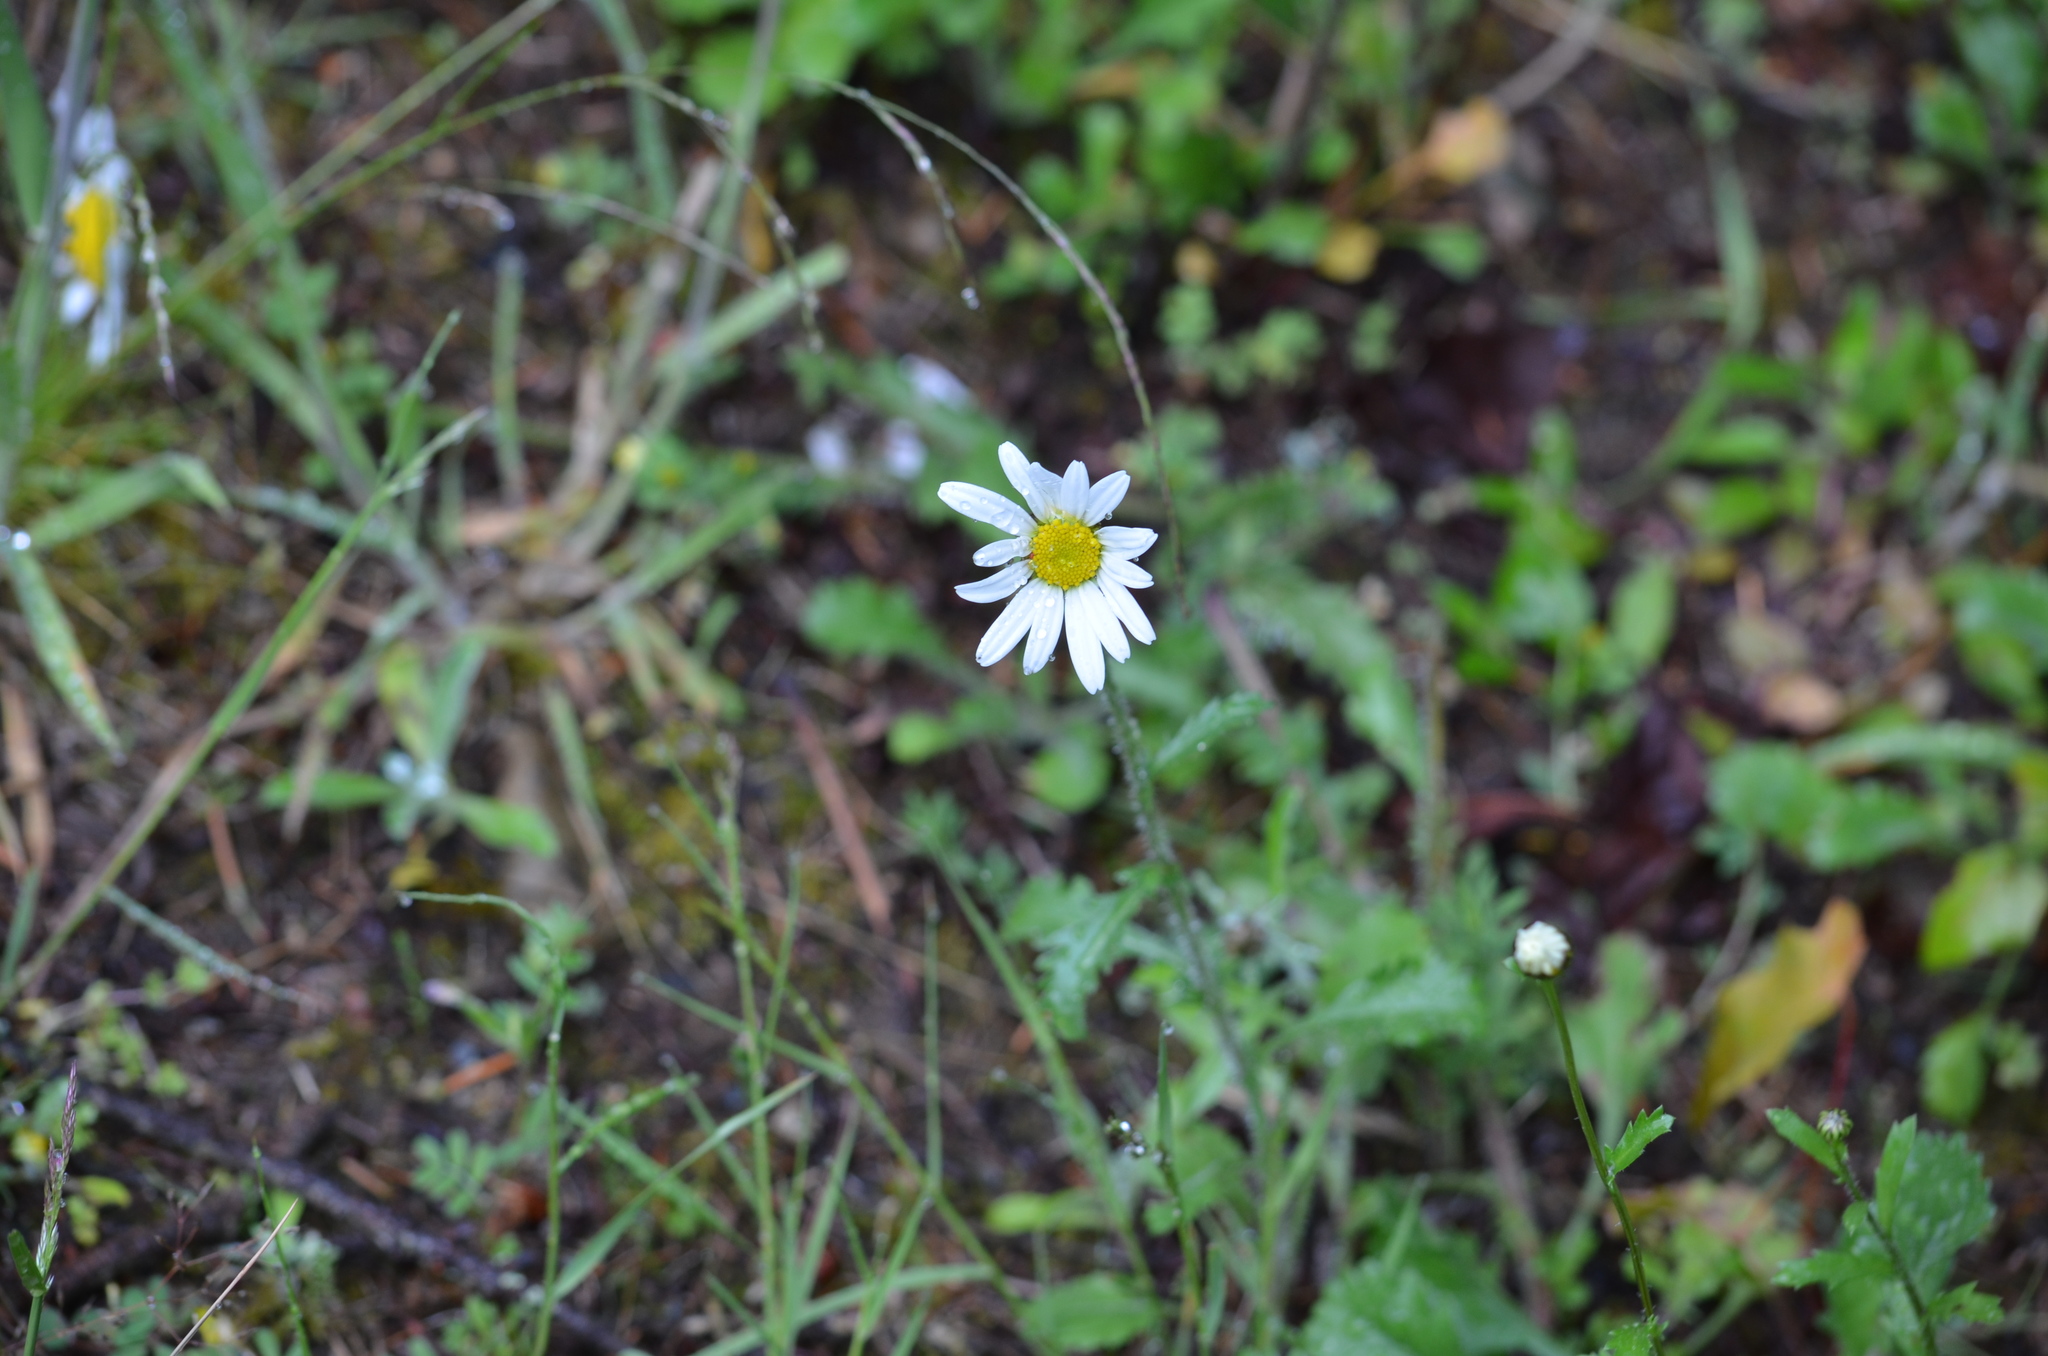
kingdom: Plantae
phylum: Tracheophyta
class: Magnoliopsida
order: Asterales
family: Asteraceae
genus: Leucanthemum
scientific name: Leucanthemum vulgare
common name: Oxeye daisy
